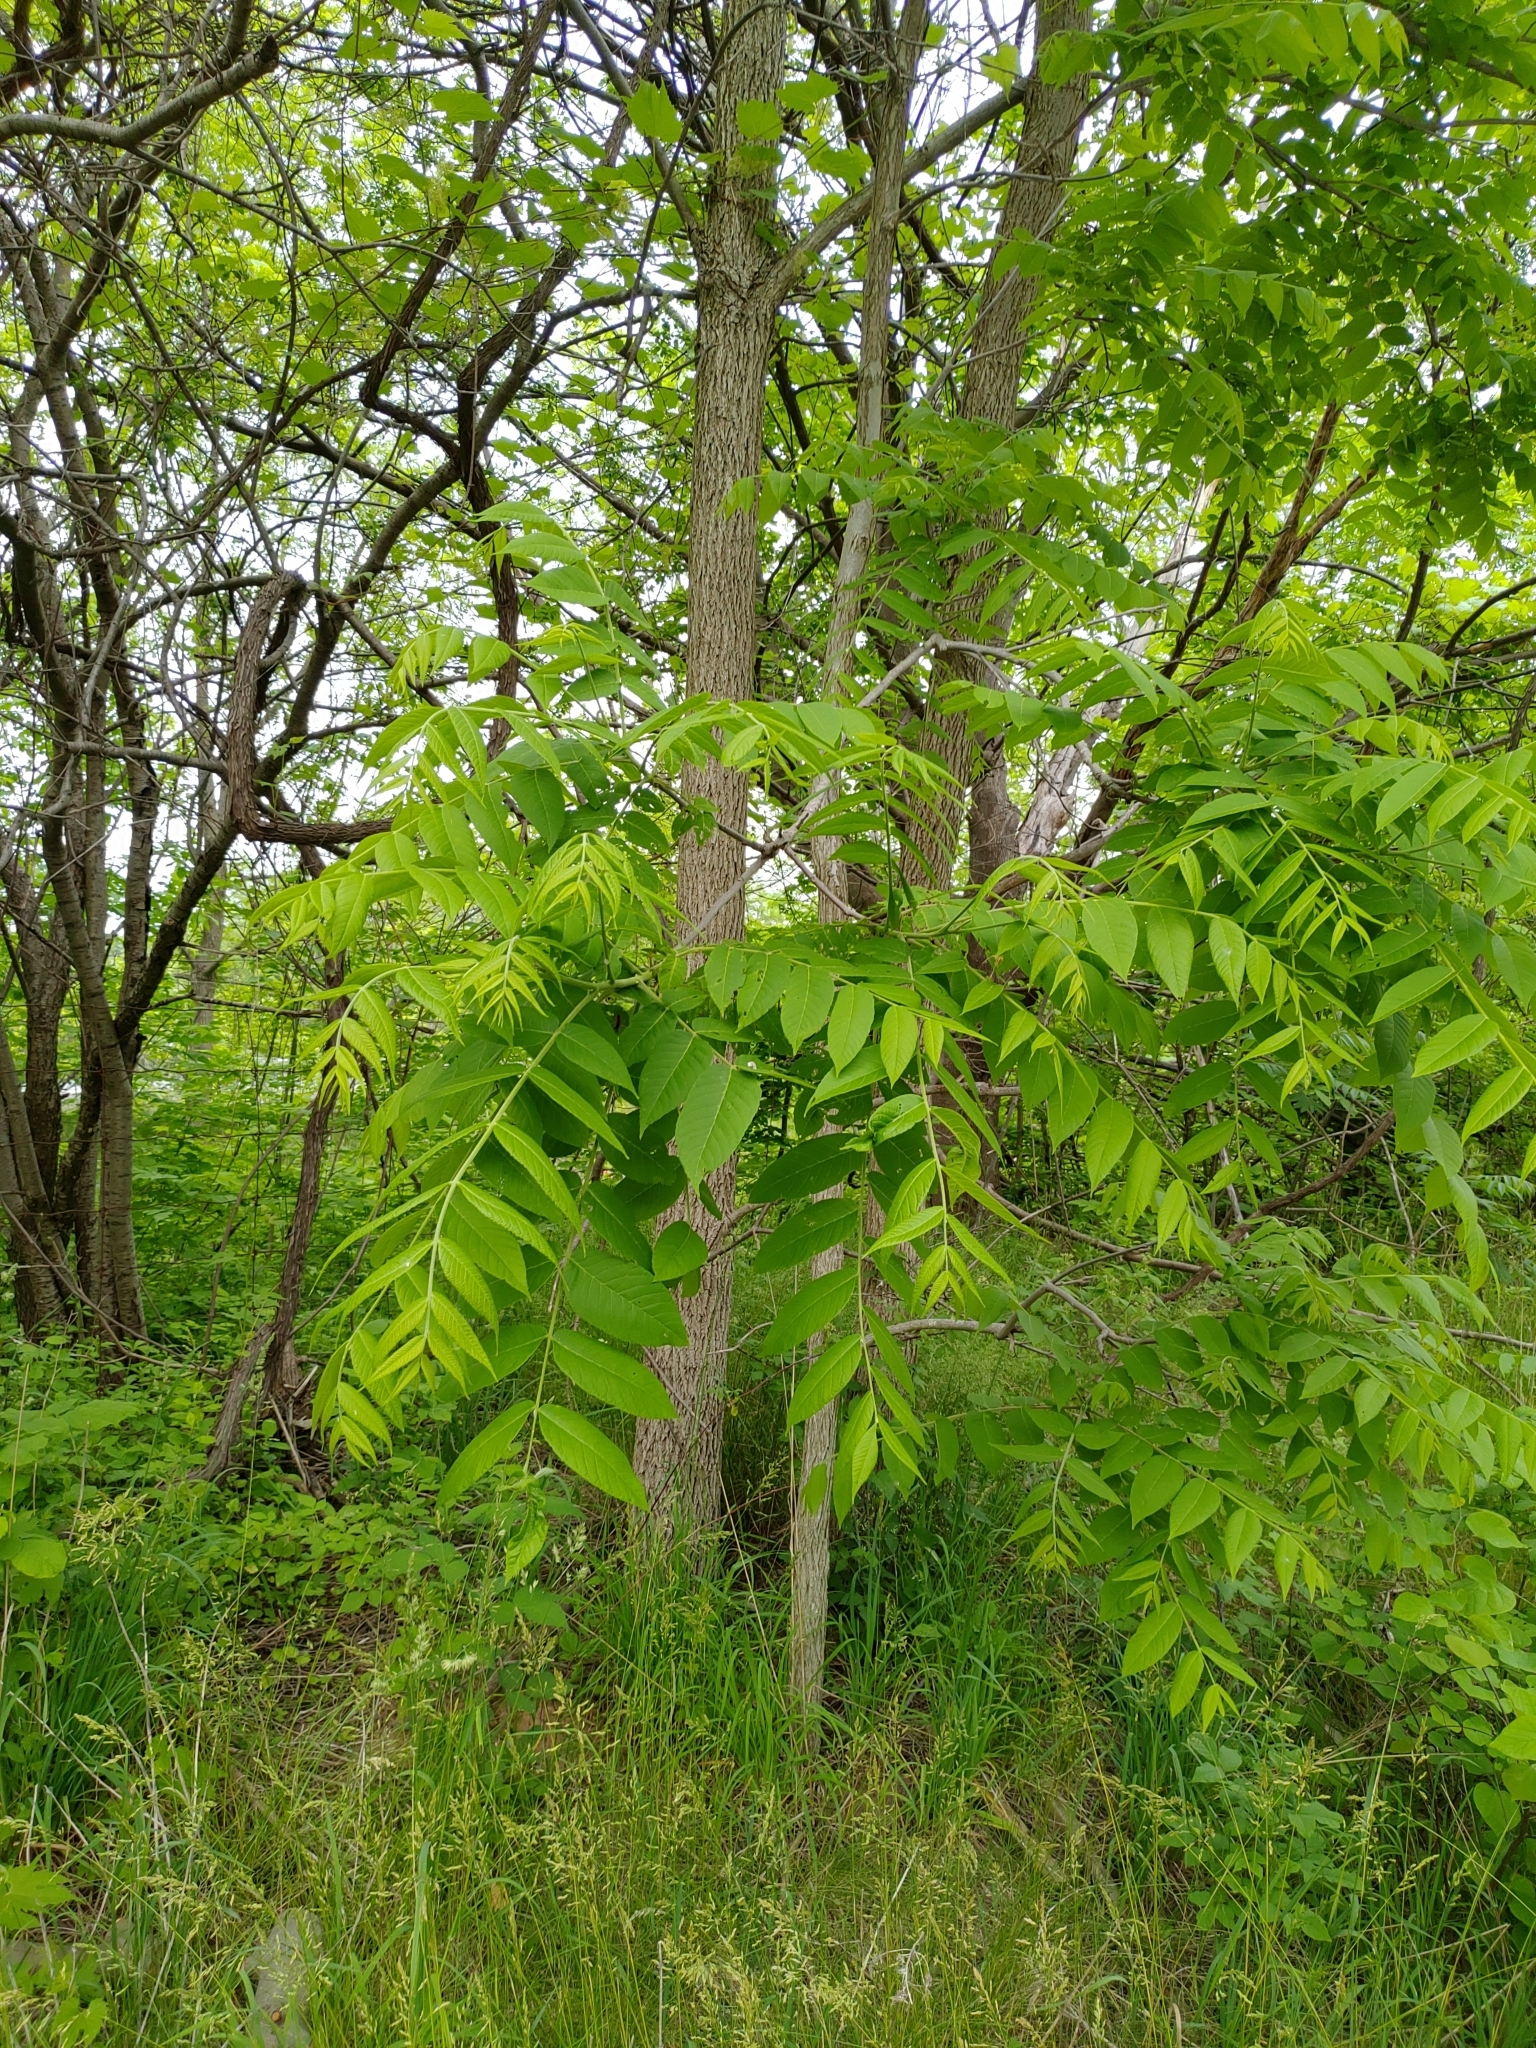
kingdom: Plantae
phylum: Tracheophyta
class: Magnoliopsida
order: Fagales
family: Juglandaceae
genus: Juglans
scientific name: Juglans nigra
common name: Black walnut
